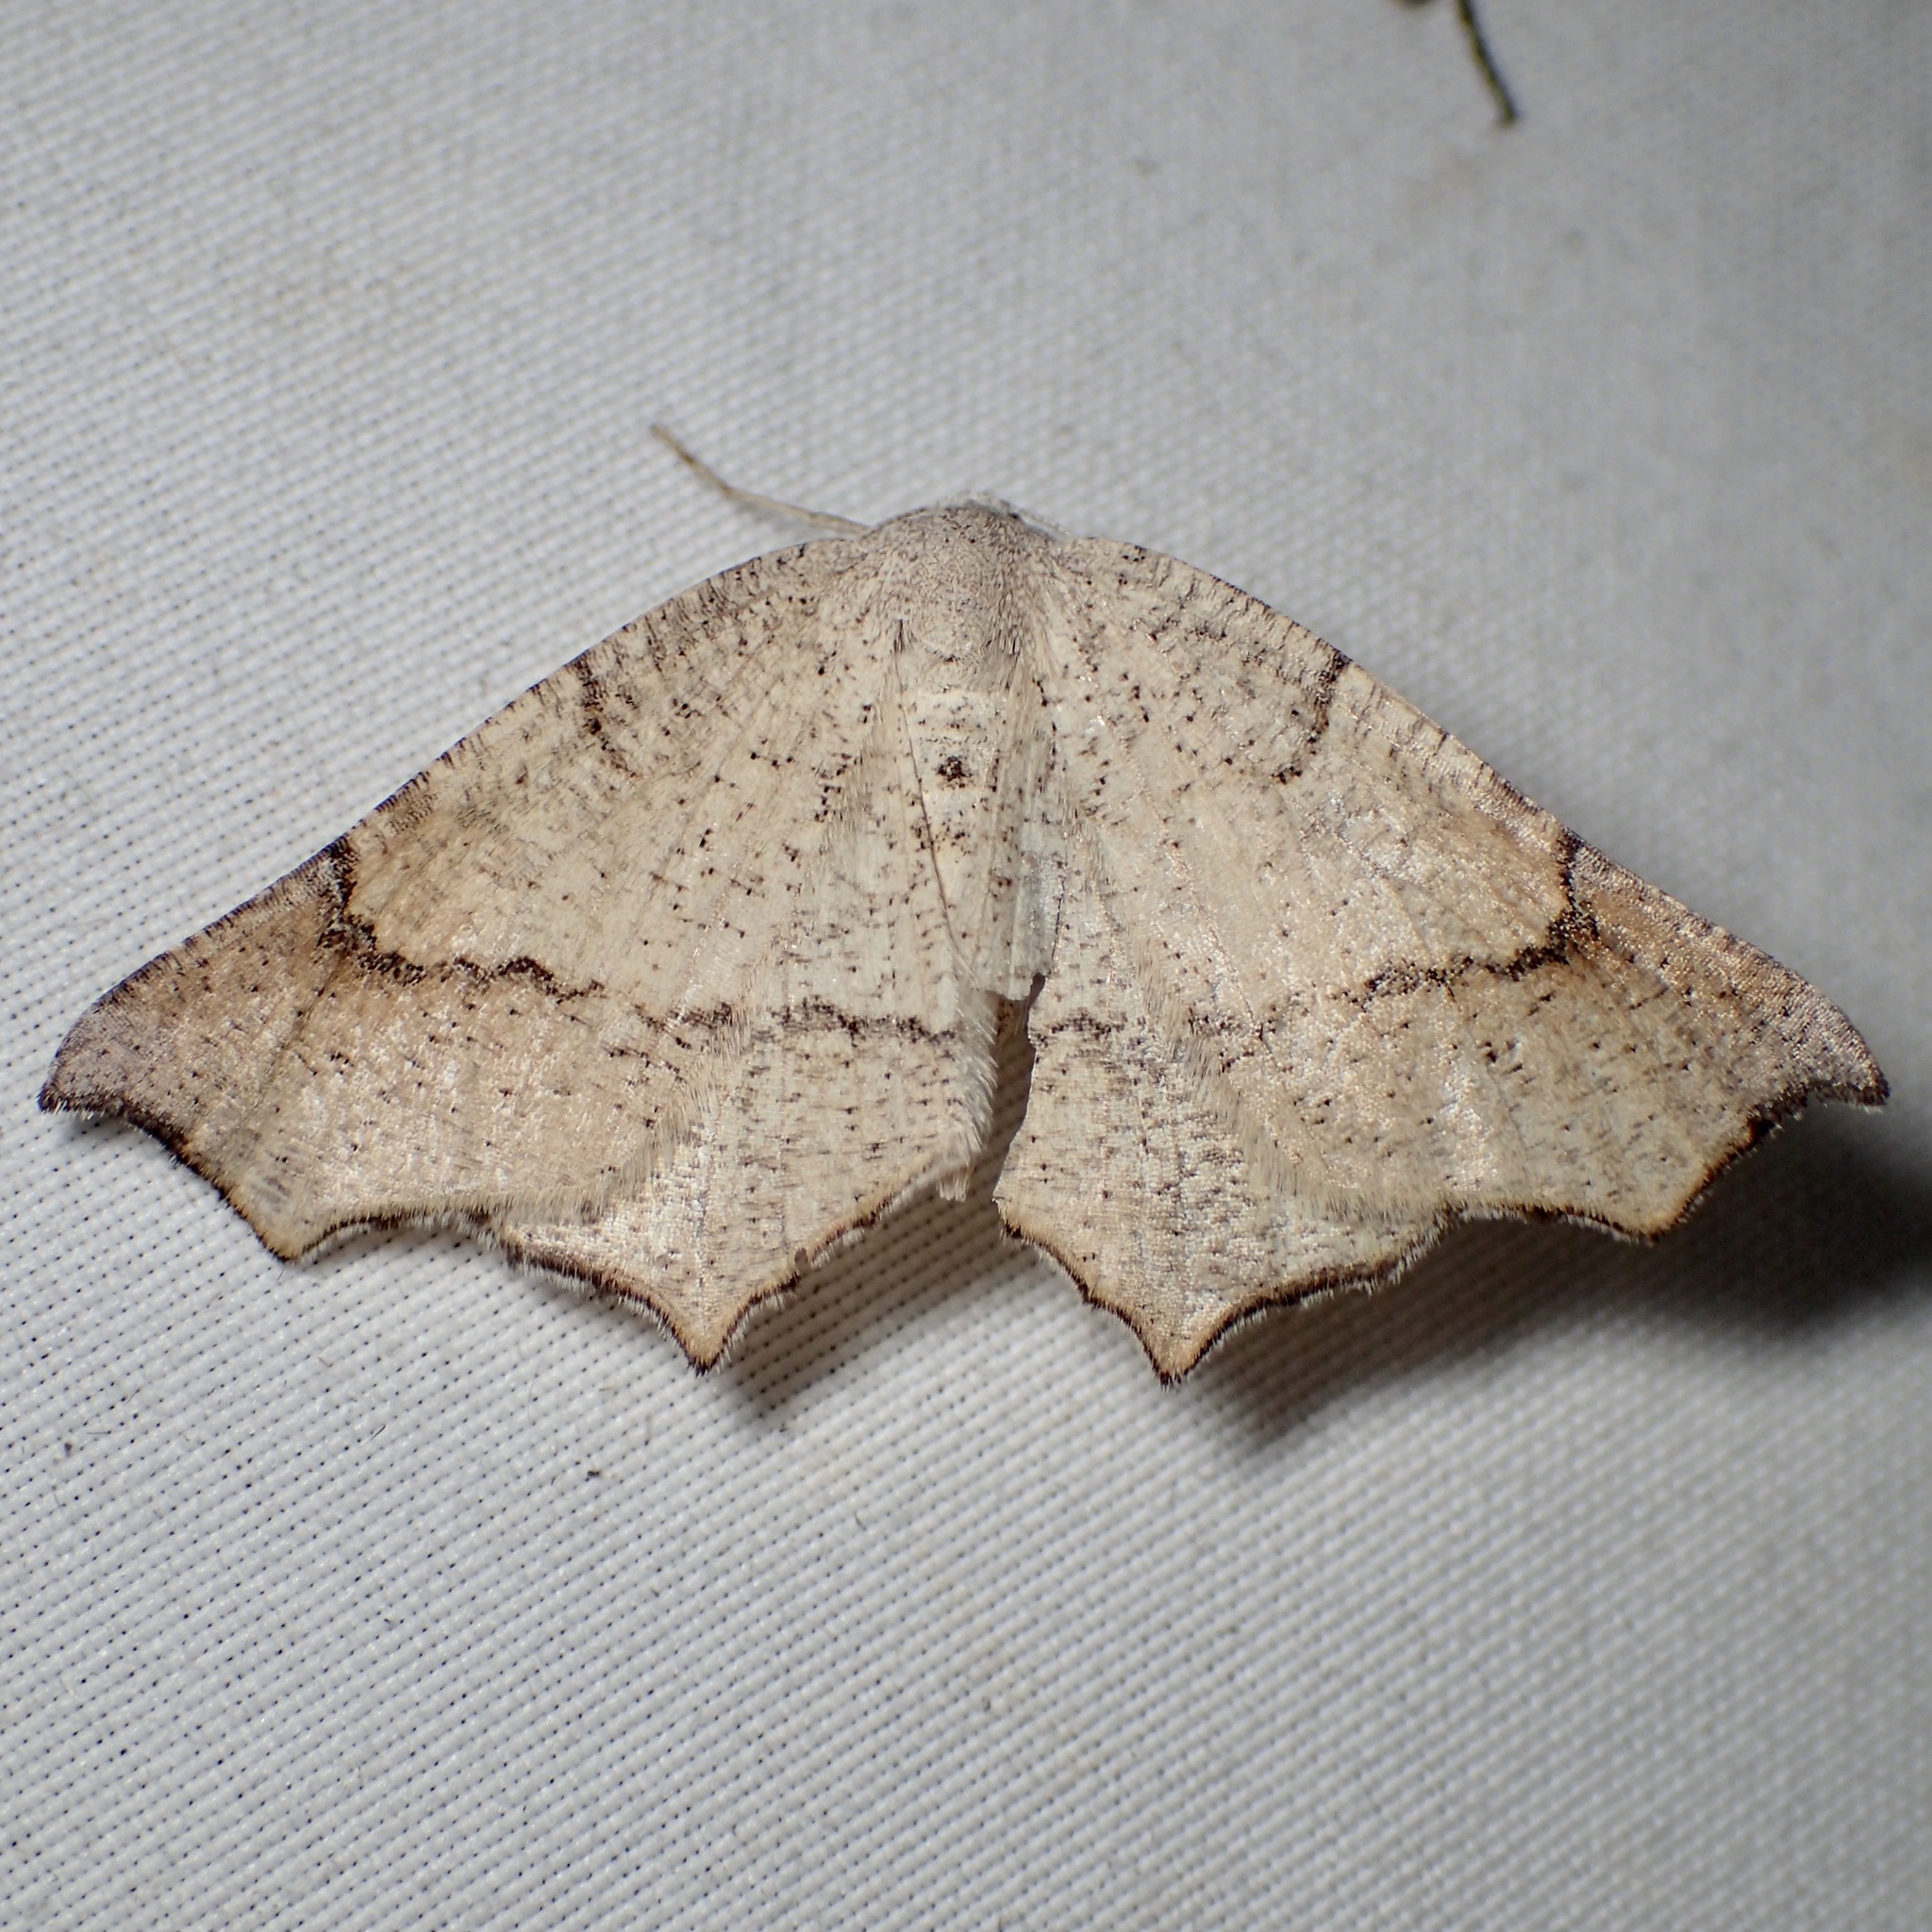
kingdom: Animalia
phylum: Arthropoda
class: Insecta
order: Lepidoptera
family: Geometridae
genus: Eriplatymetra
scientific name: Eriplatymetra grotearia
